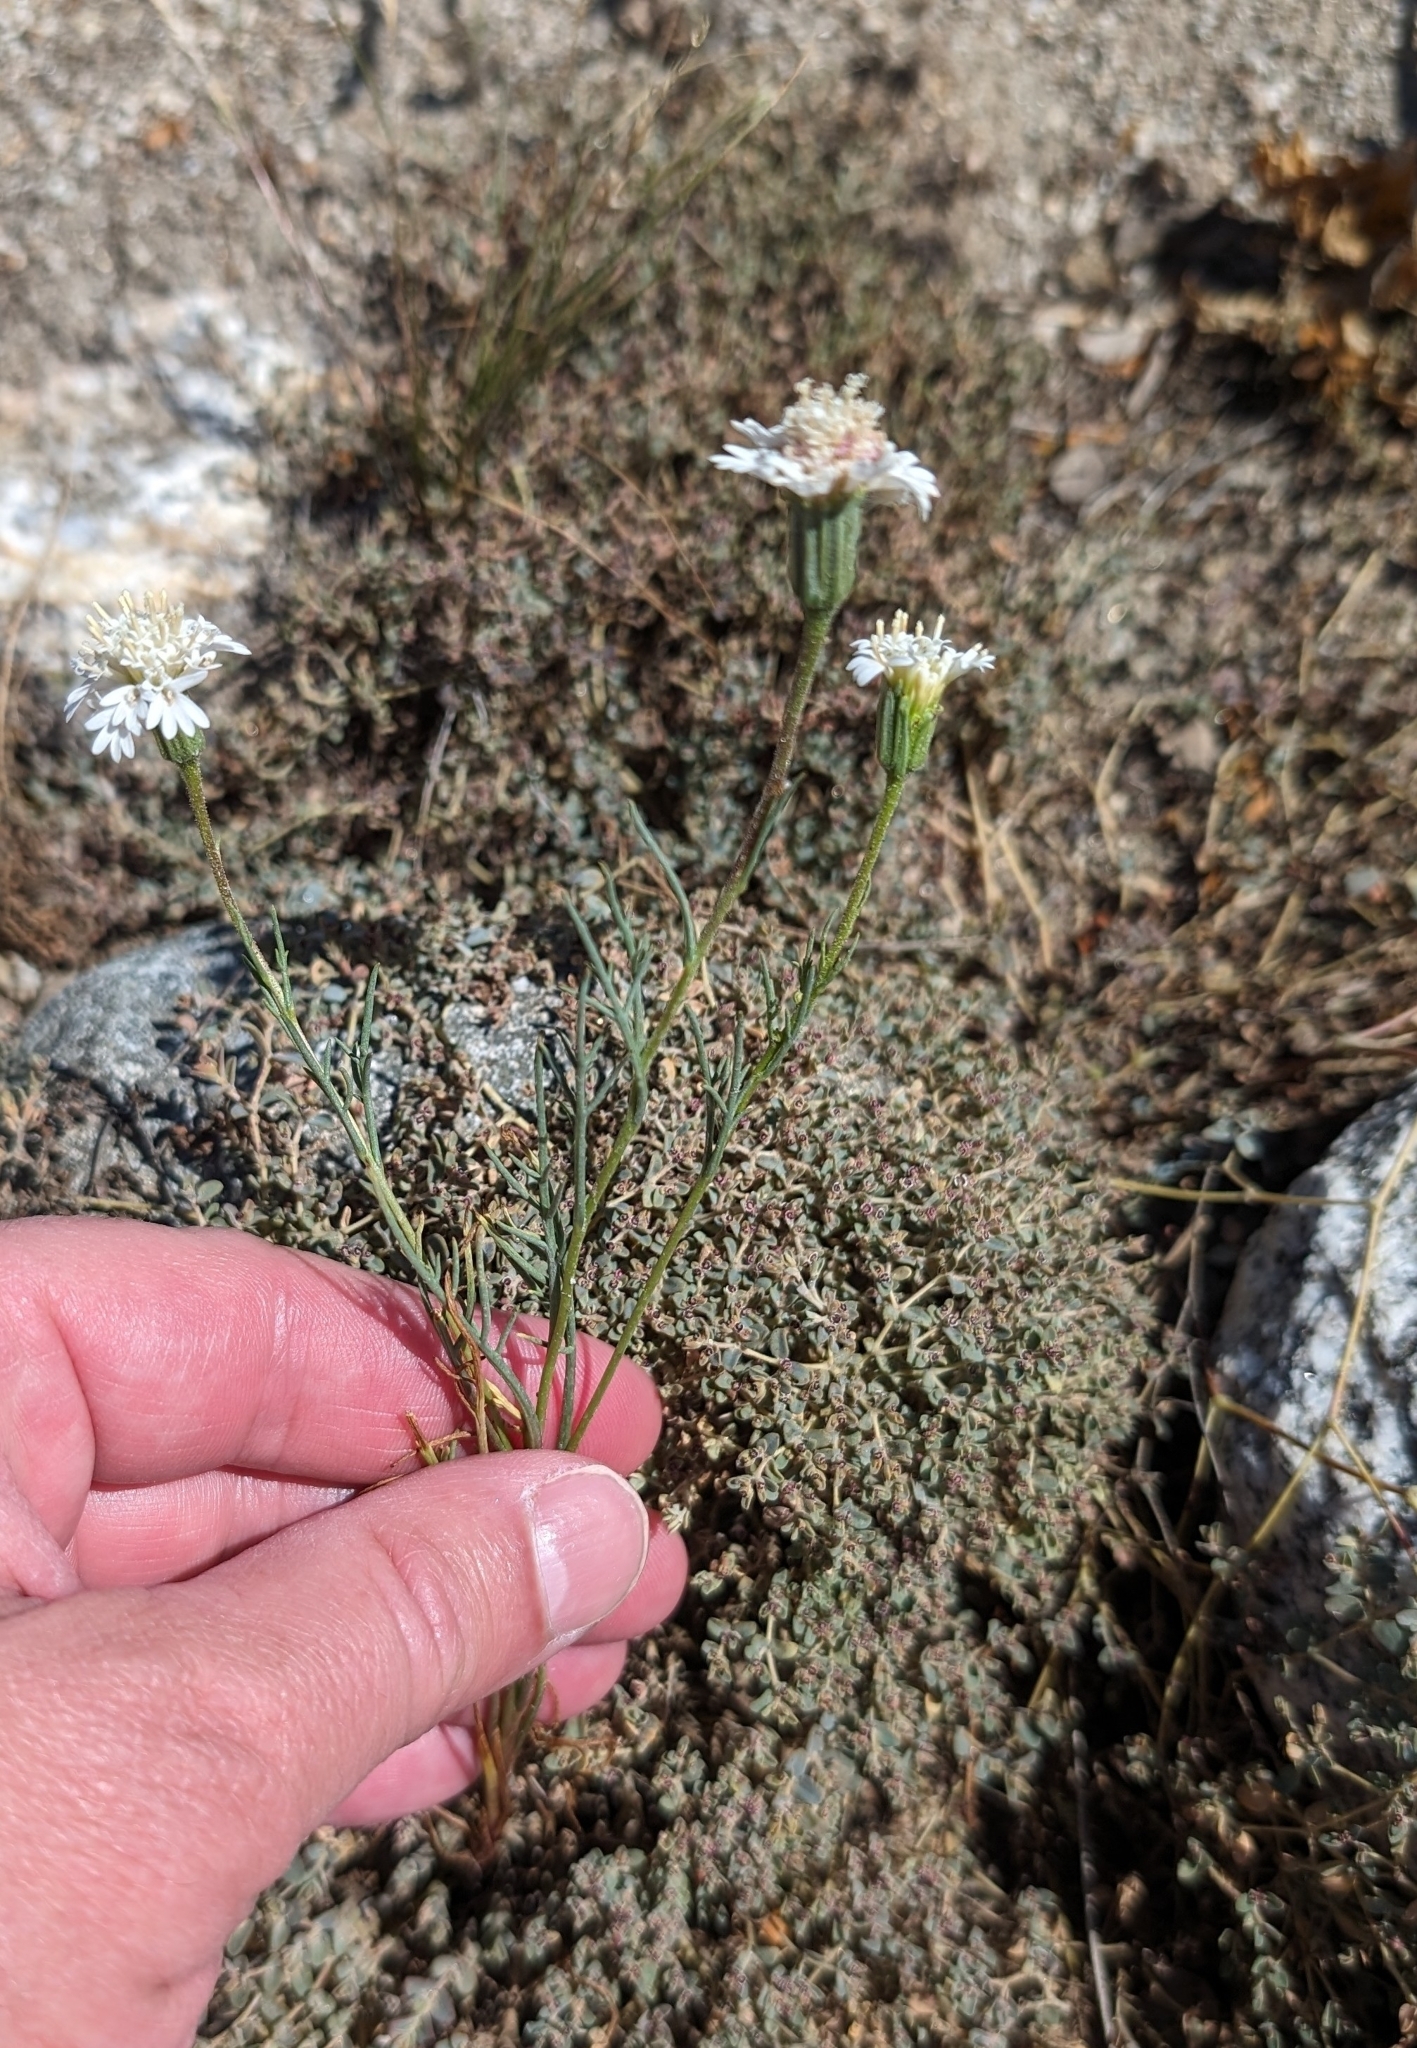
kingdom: Plantae
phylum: Tracheophyta
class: Magnoliopsida
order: Asterales
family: Asteraceae
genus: Chaenactis
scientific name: Chaenactis fremontii
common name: Fremont pincushion
